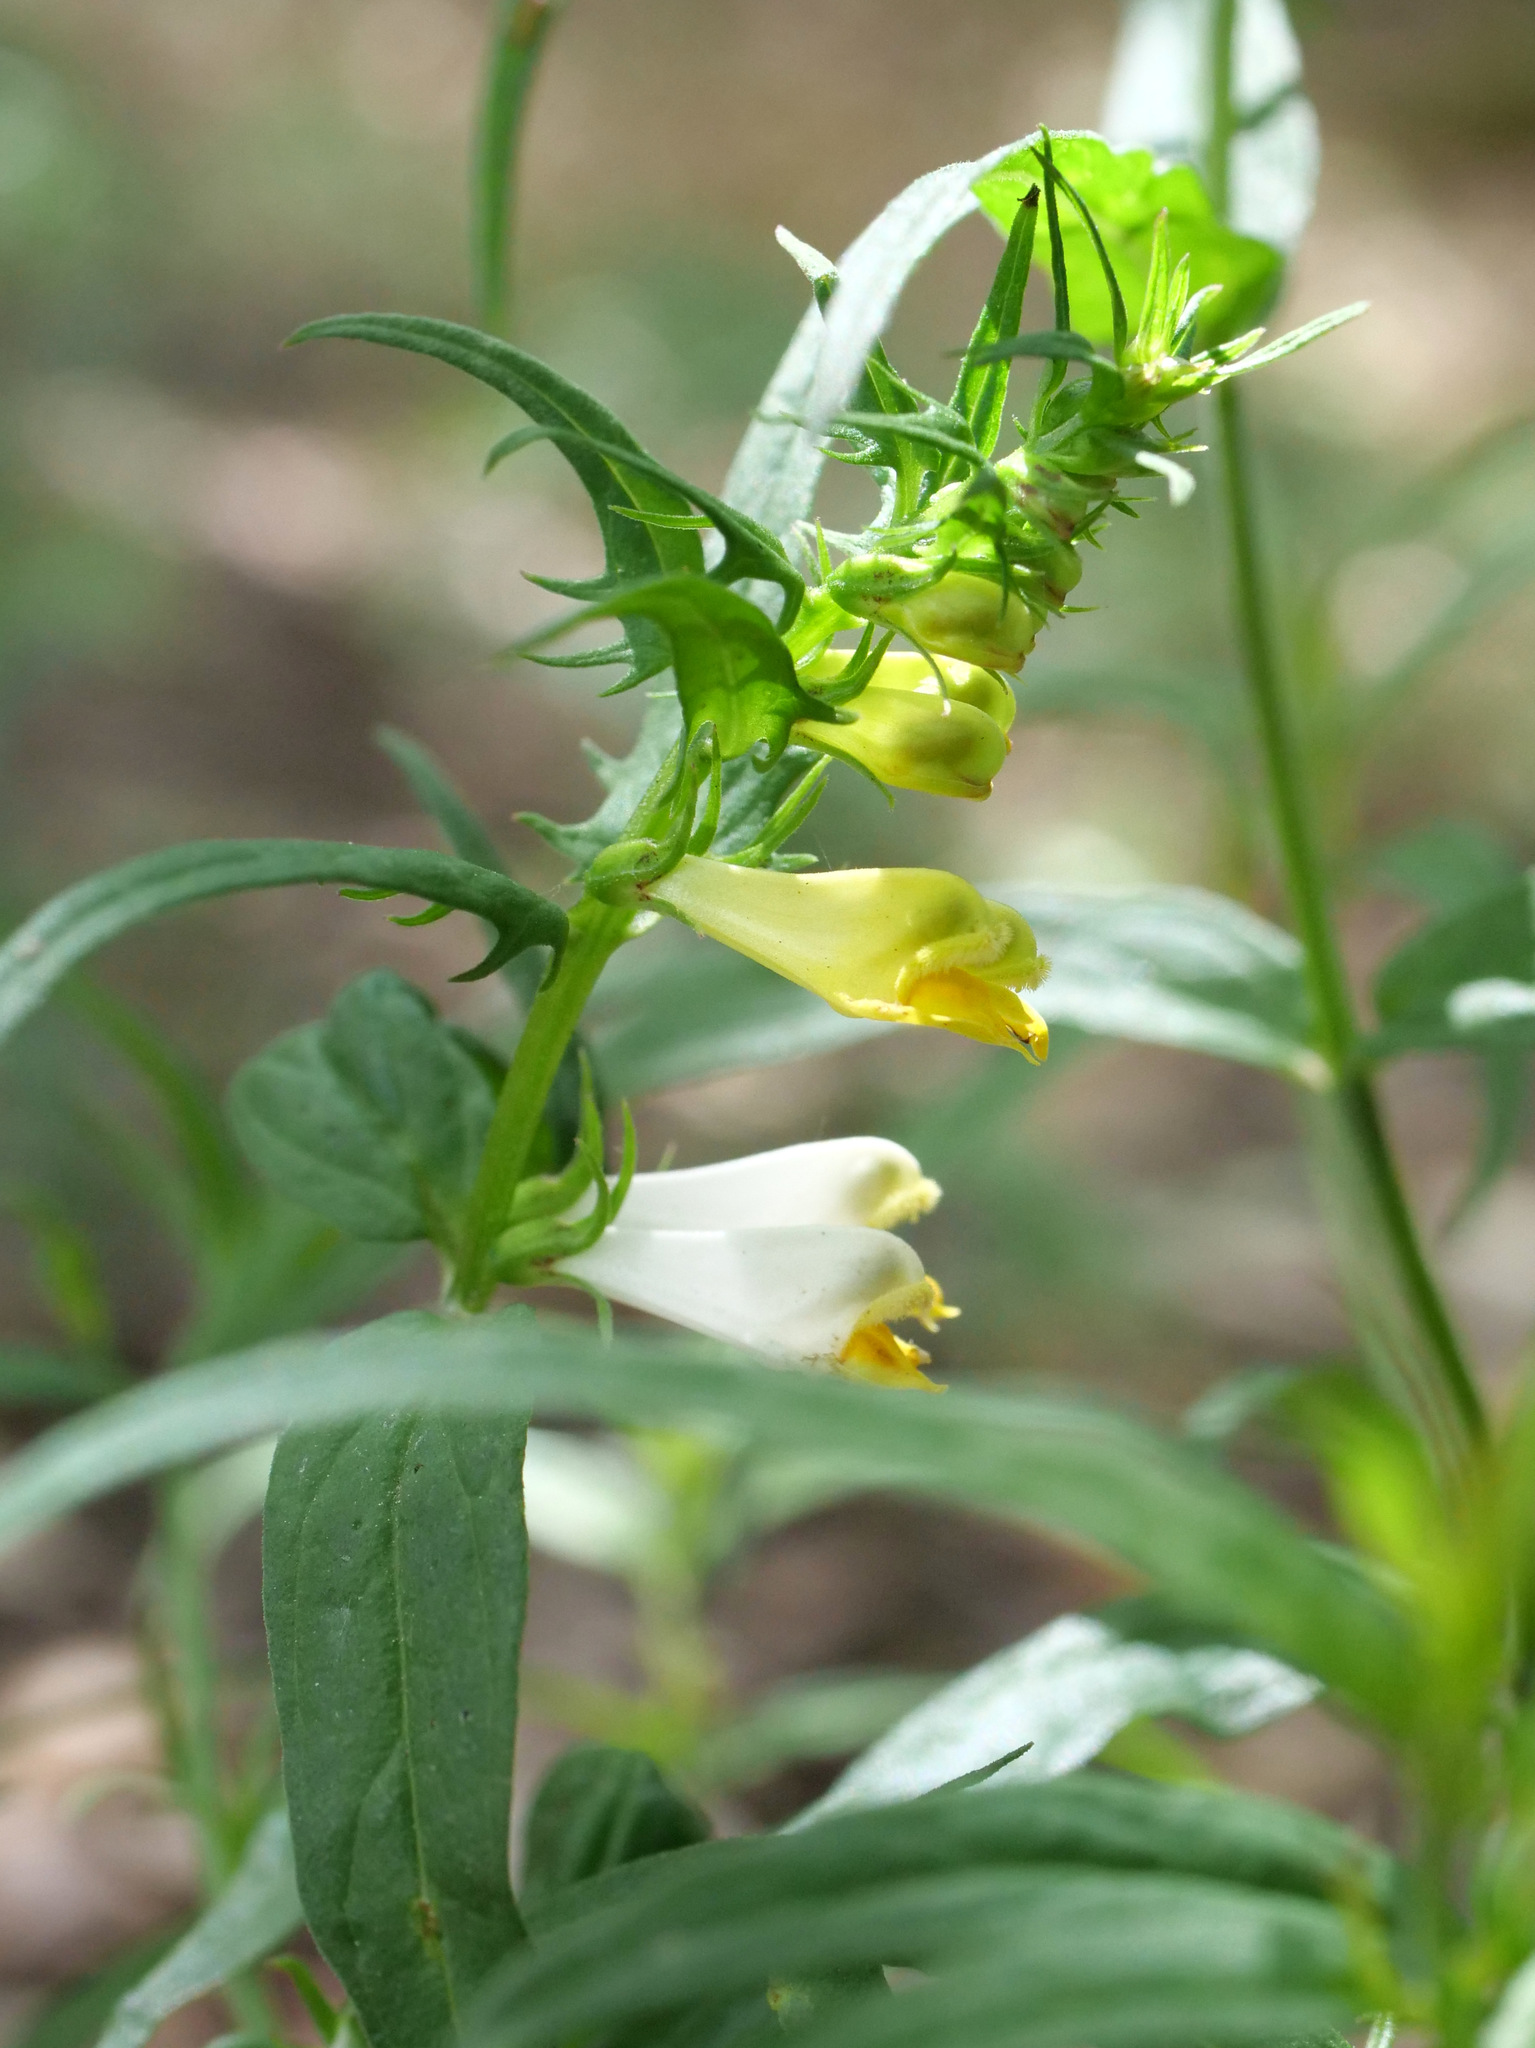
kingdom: Plantae
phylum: Tracheophyta
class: Magnoliopsida
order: Lamiales
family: Orobanchaceae
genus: Melampyrum
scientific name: Melampyrum pratense
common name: Common cow-wheat
